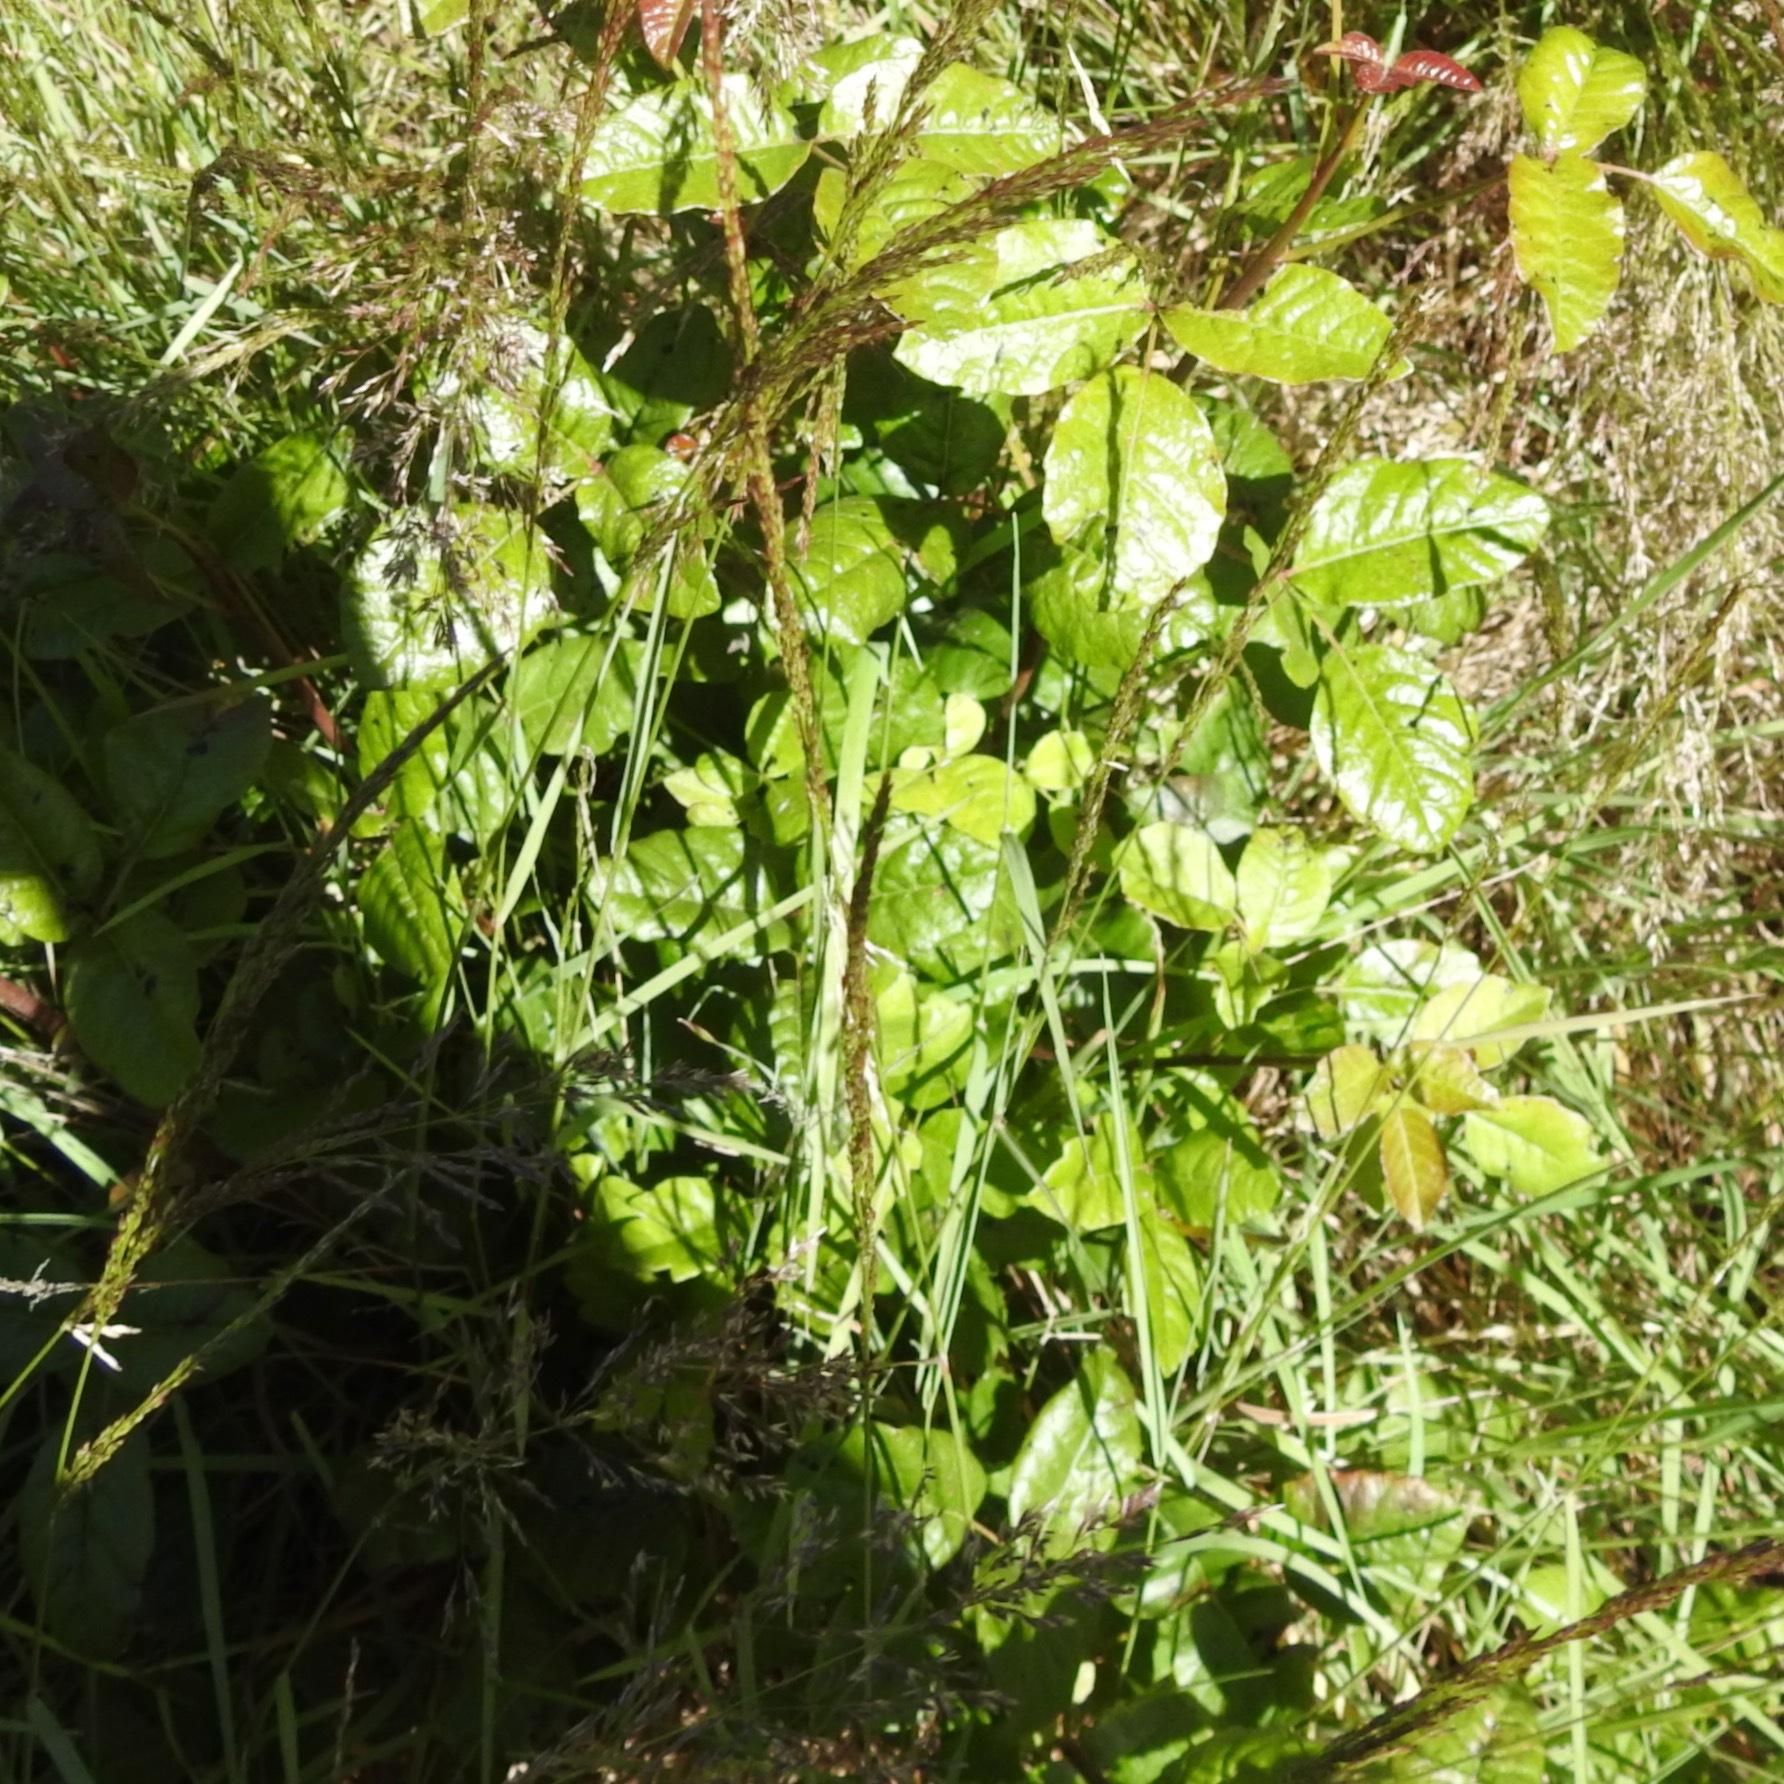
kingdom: Plantae
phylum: Tracheophyta
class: Magnoliopsida
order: Sapindales
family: Anacardiaceae
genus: Toxicodendron
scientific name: Toxicodendron diversilobum
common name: Pacific poison-oak
